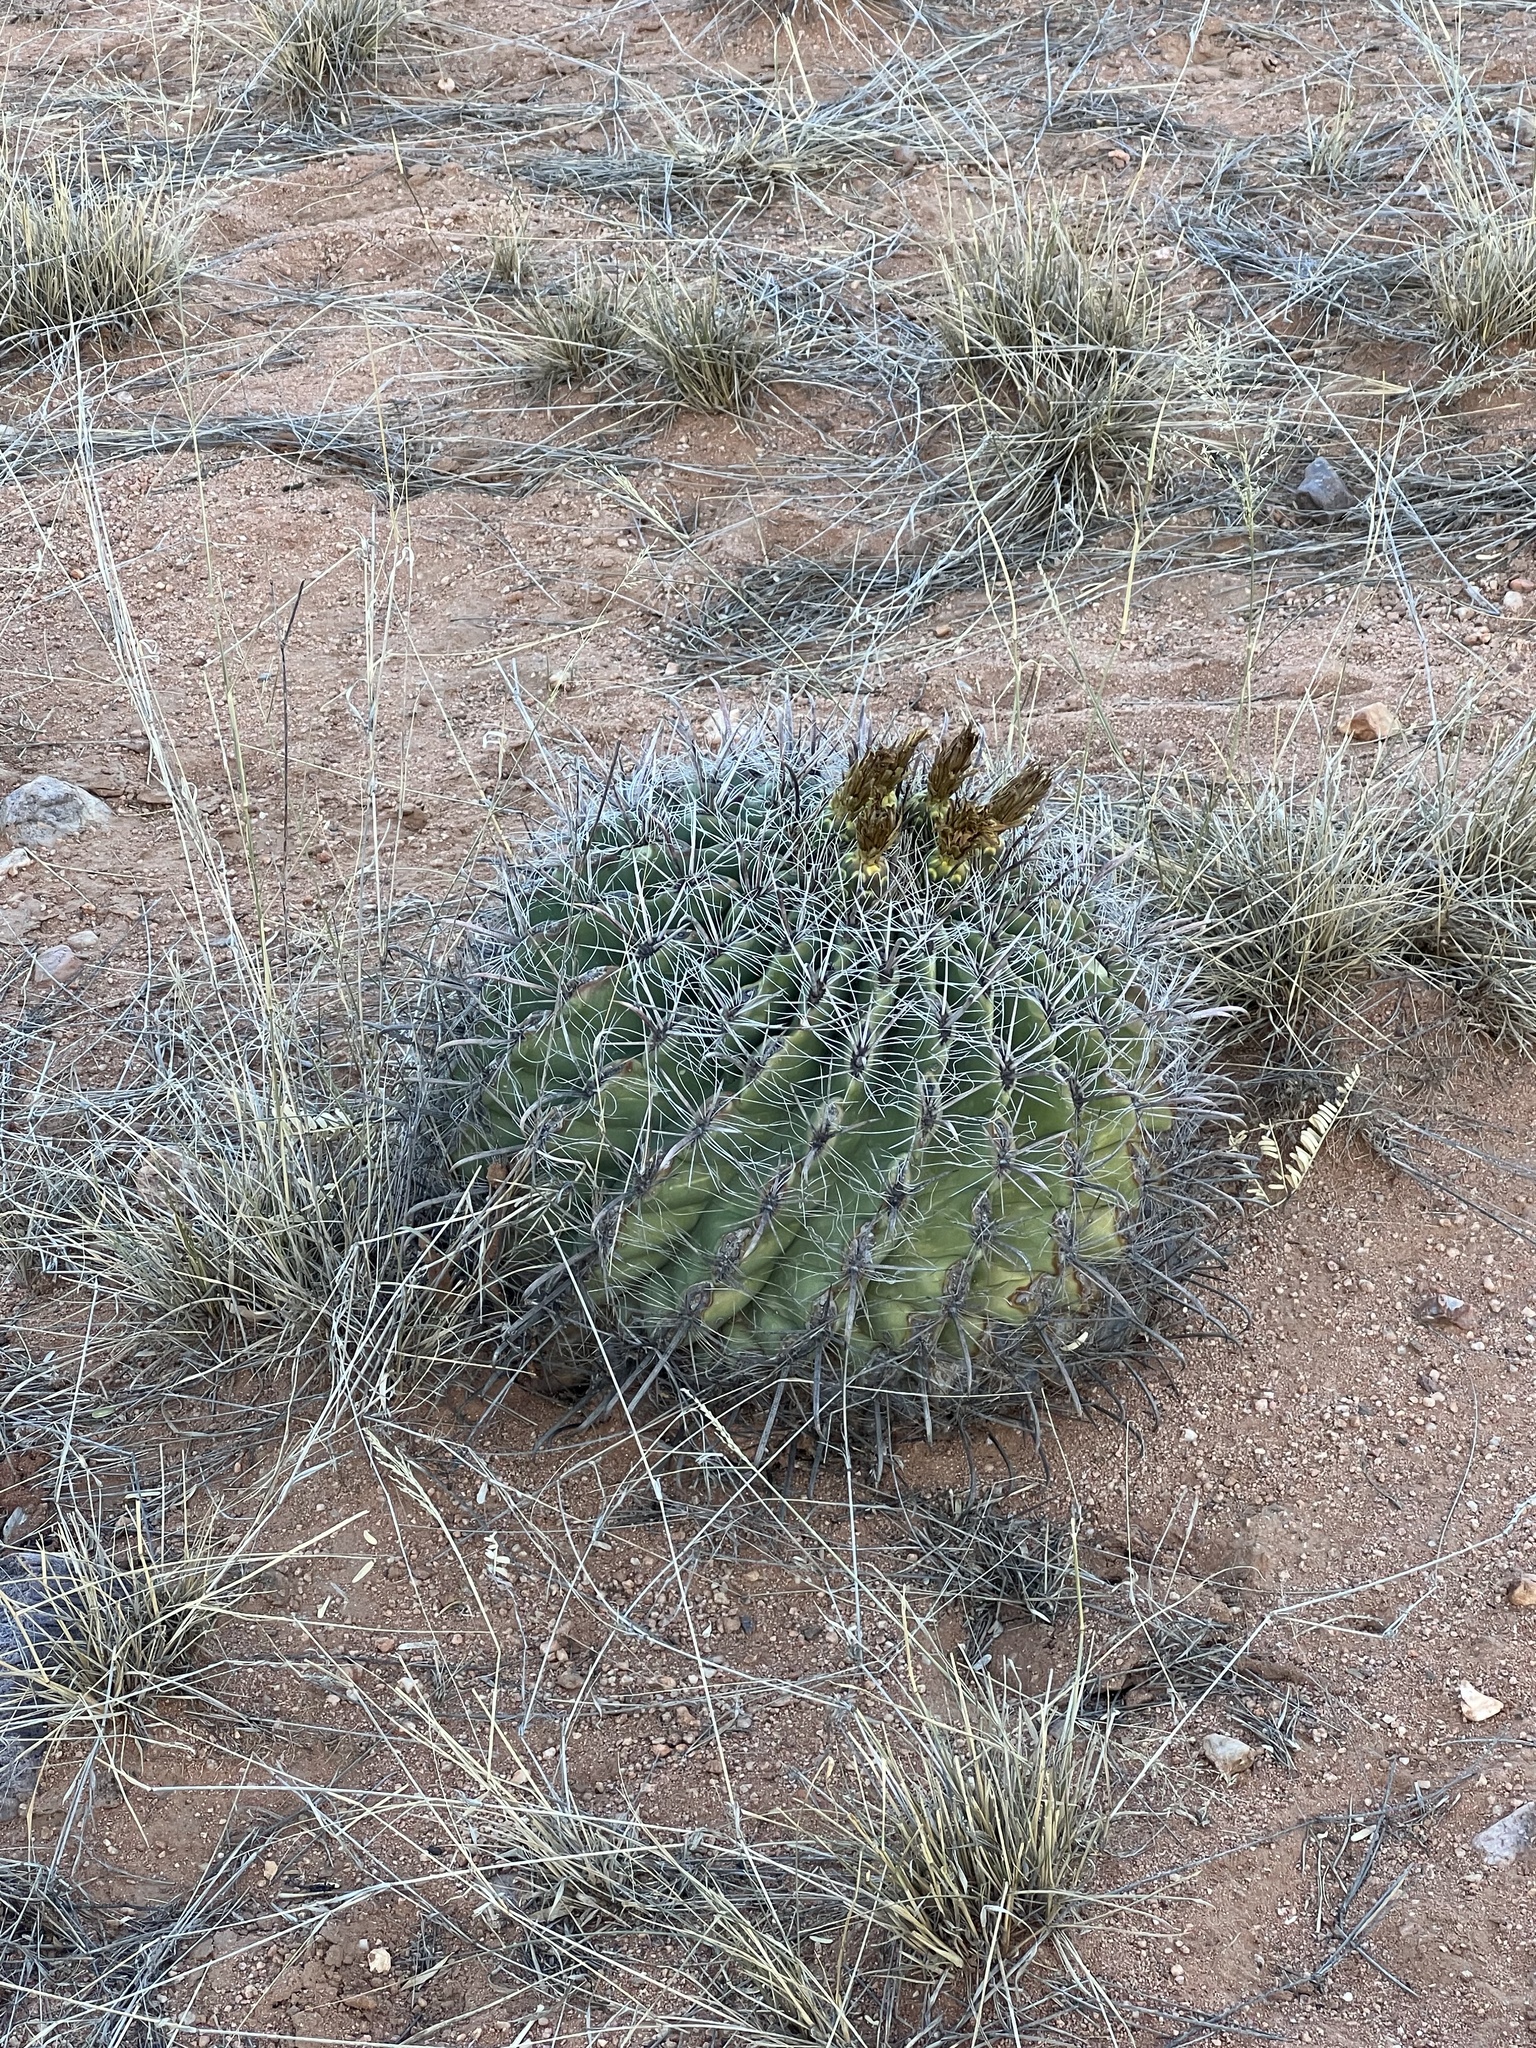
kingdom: Plantae
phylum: Tracheophyta
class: Magnoliopsida
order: Caryophyllales
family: Cactaceae
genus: Ferocactus
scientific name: Ferocactus wislizeni
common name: Candy barrel cactus
